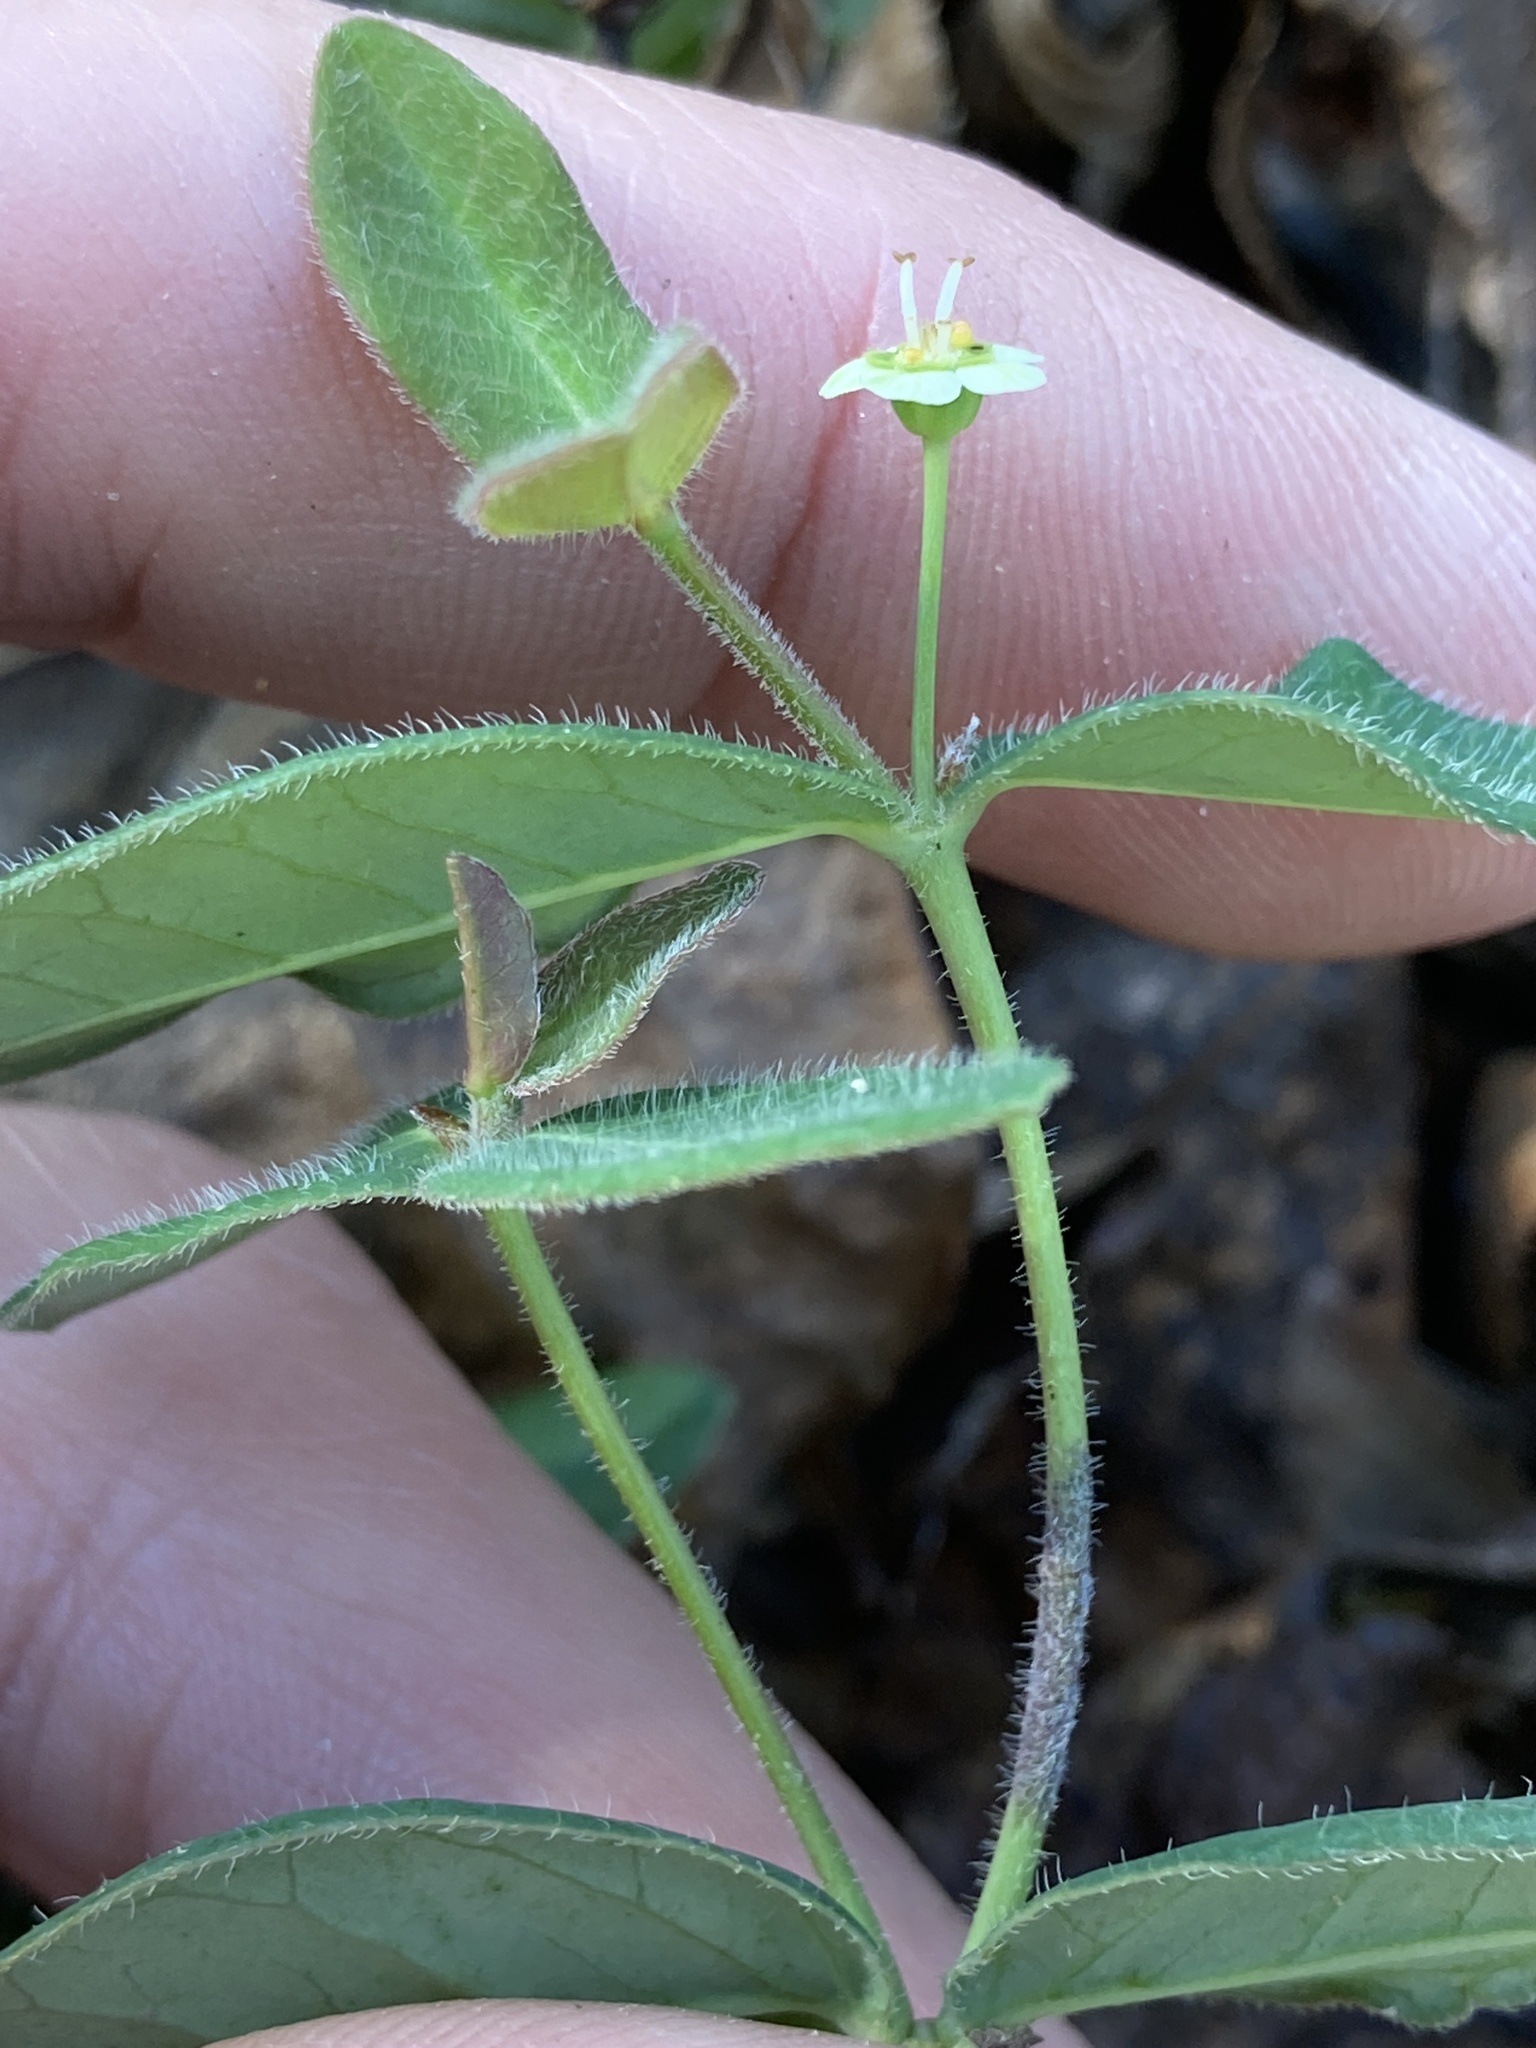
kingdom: Plantae
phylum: Tracheophyta
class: Magnoliopsida
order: Malpighiales
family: Euphorbiaceae
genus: Euphorbia
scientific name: Euphorbia mercurialina
